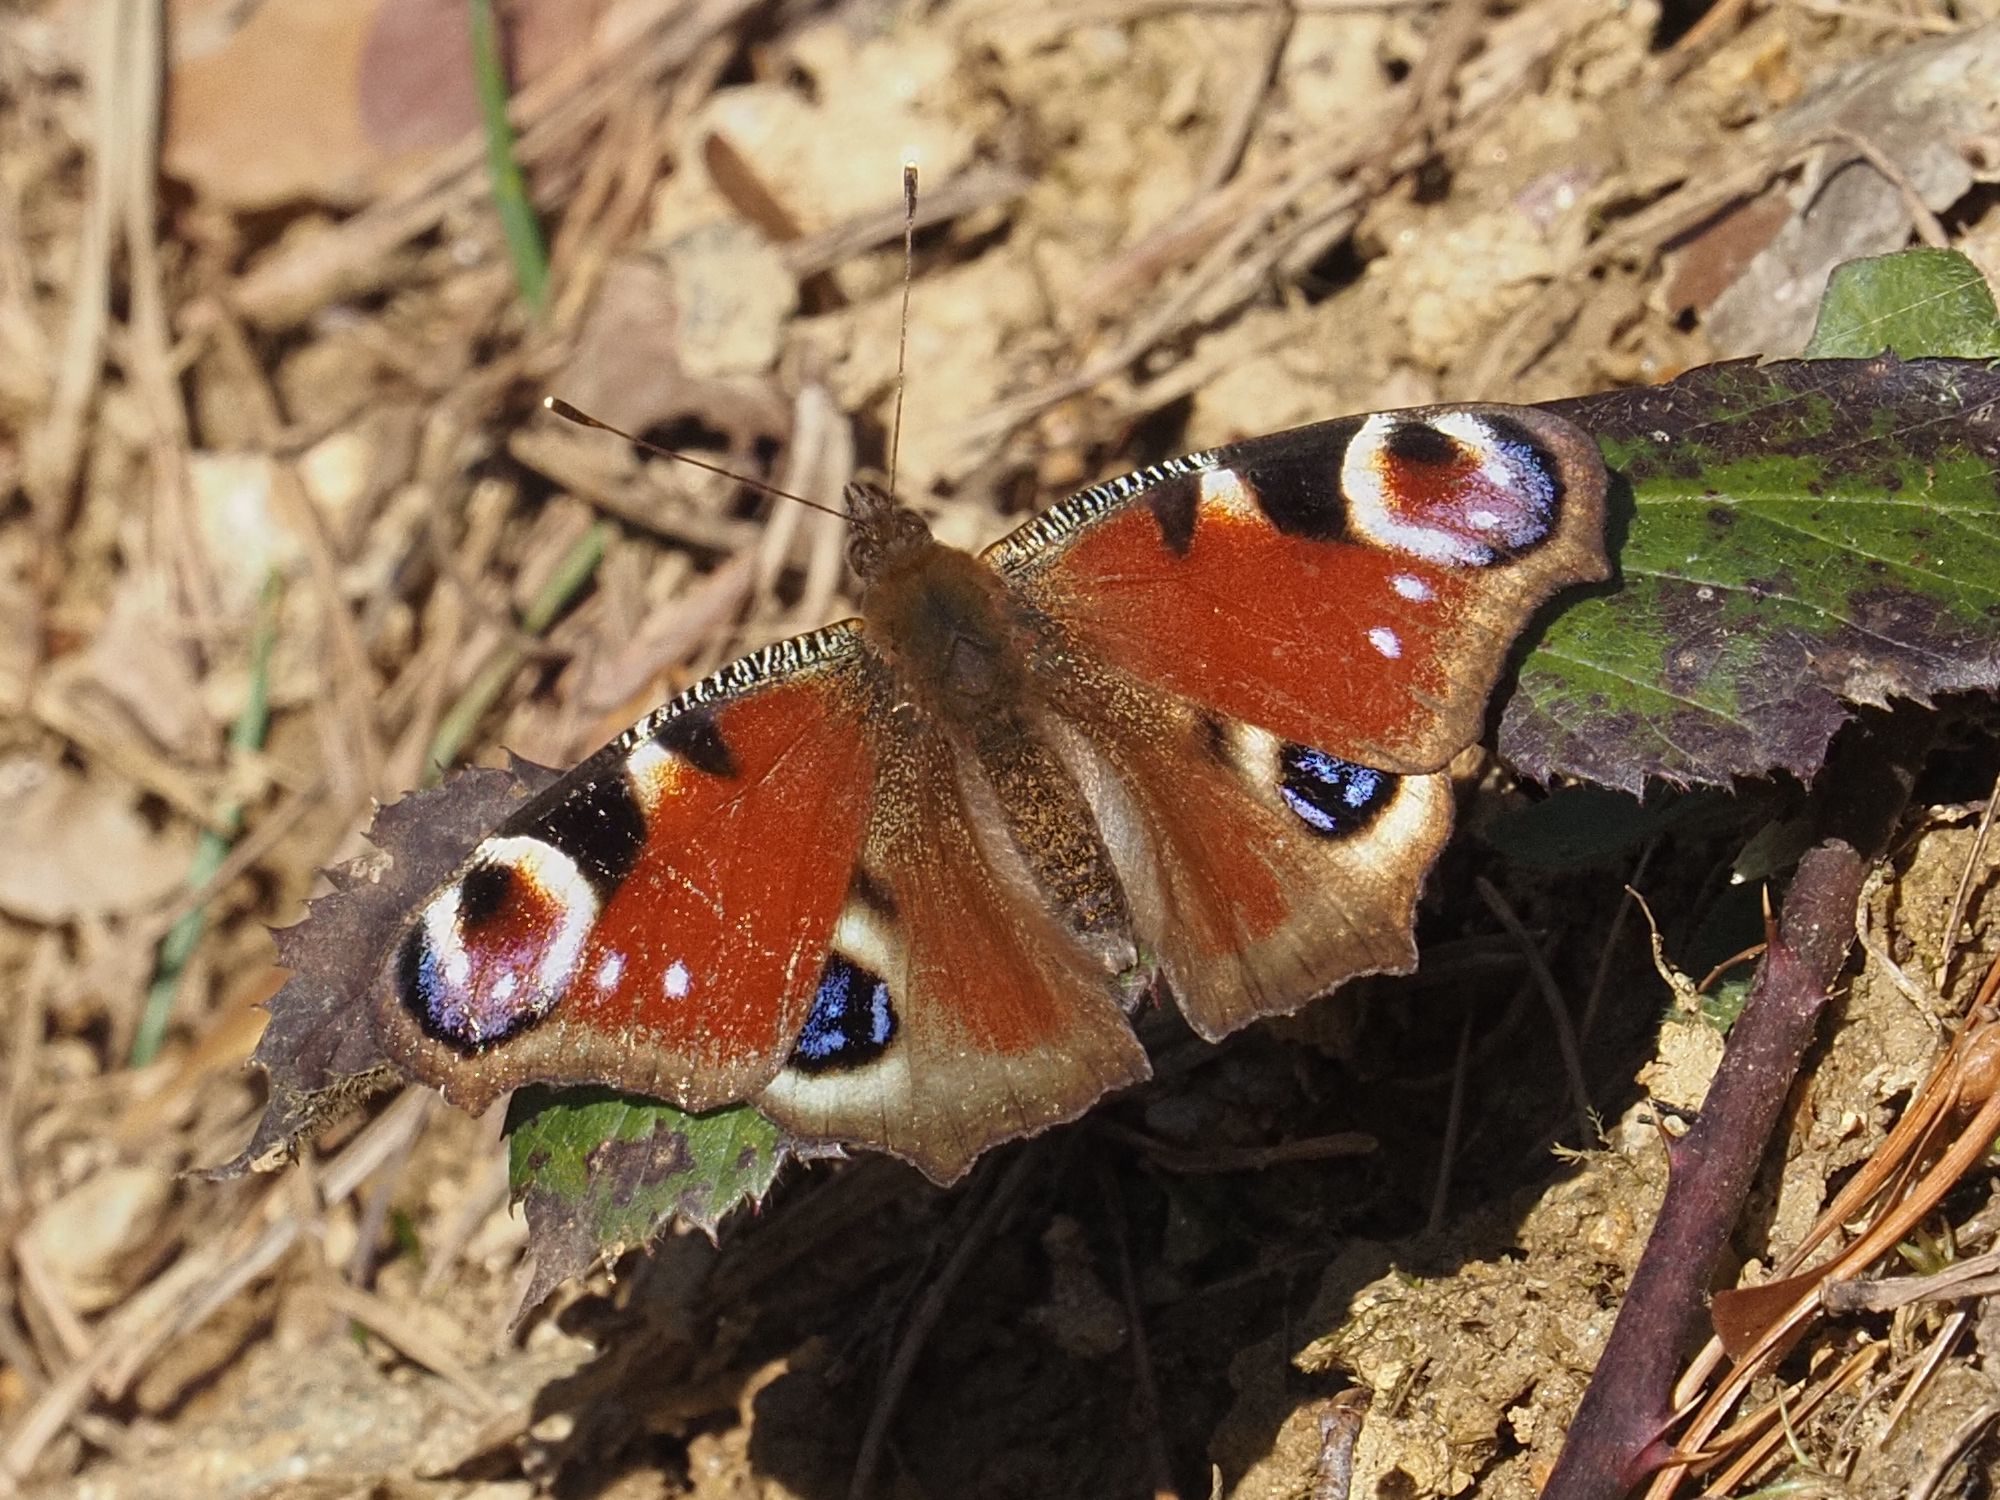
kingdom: Animalia
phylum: Arthropoda
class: Insecta
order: Lepidoptera
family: Nymphalidae
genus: Aglais
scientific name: Aglais io
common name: Peacock
